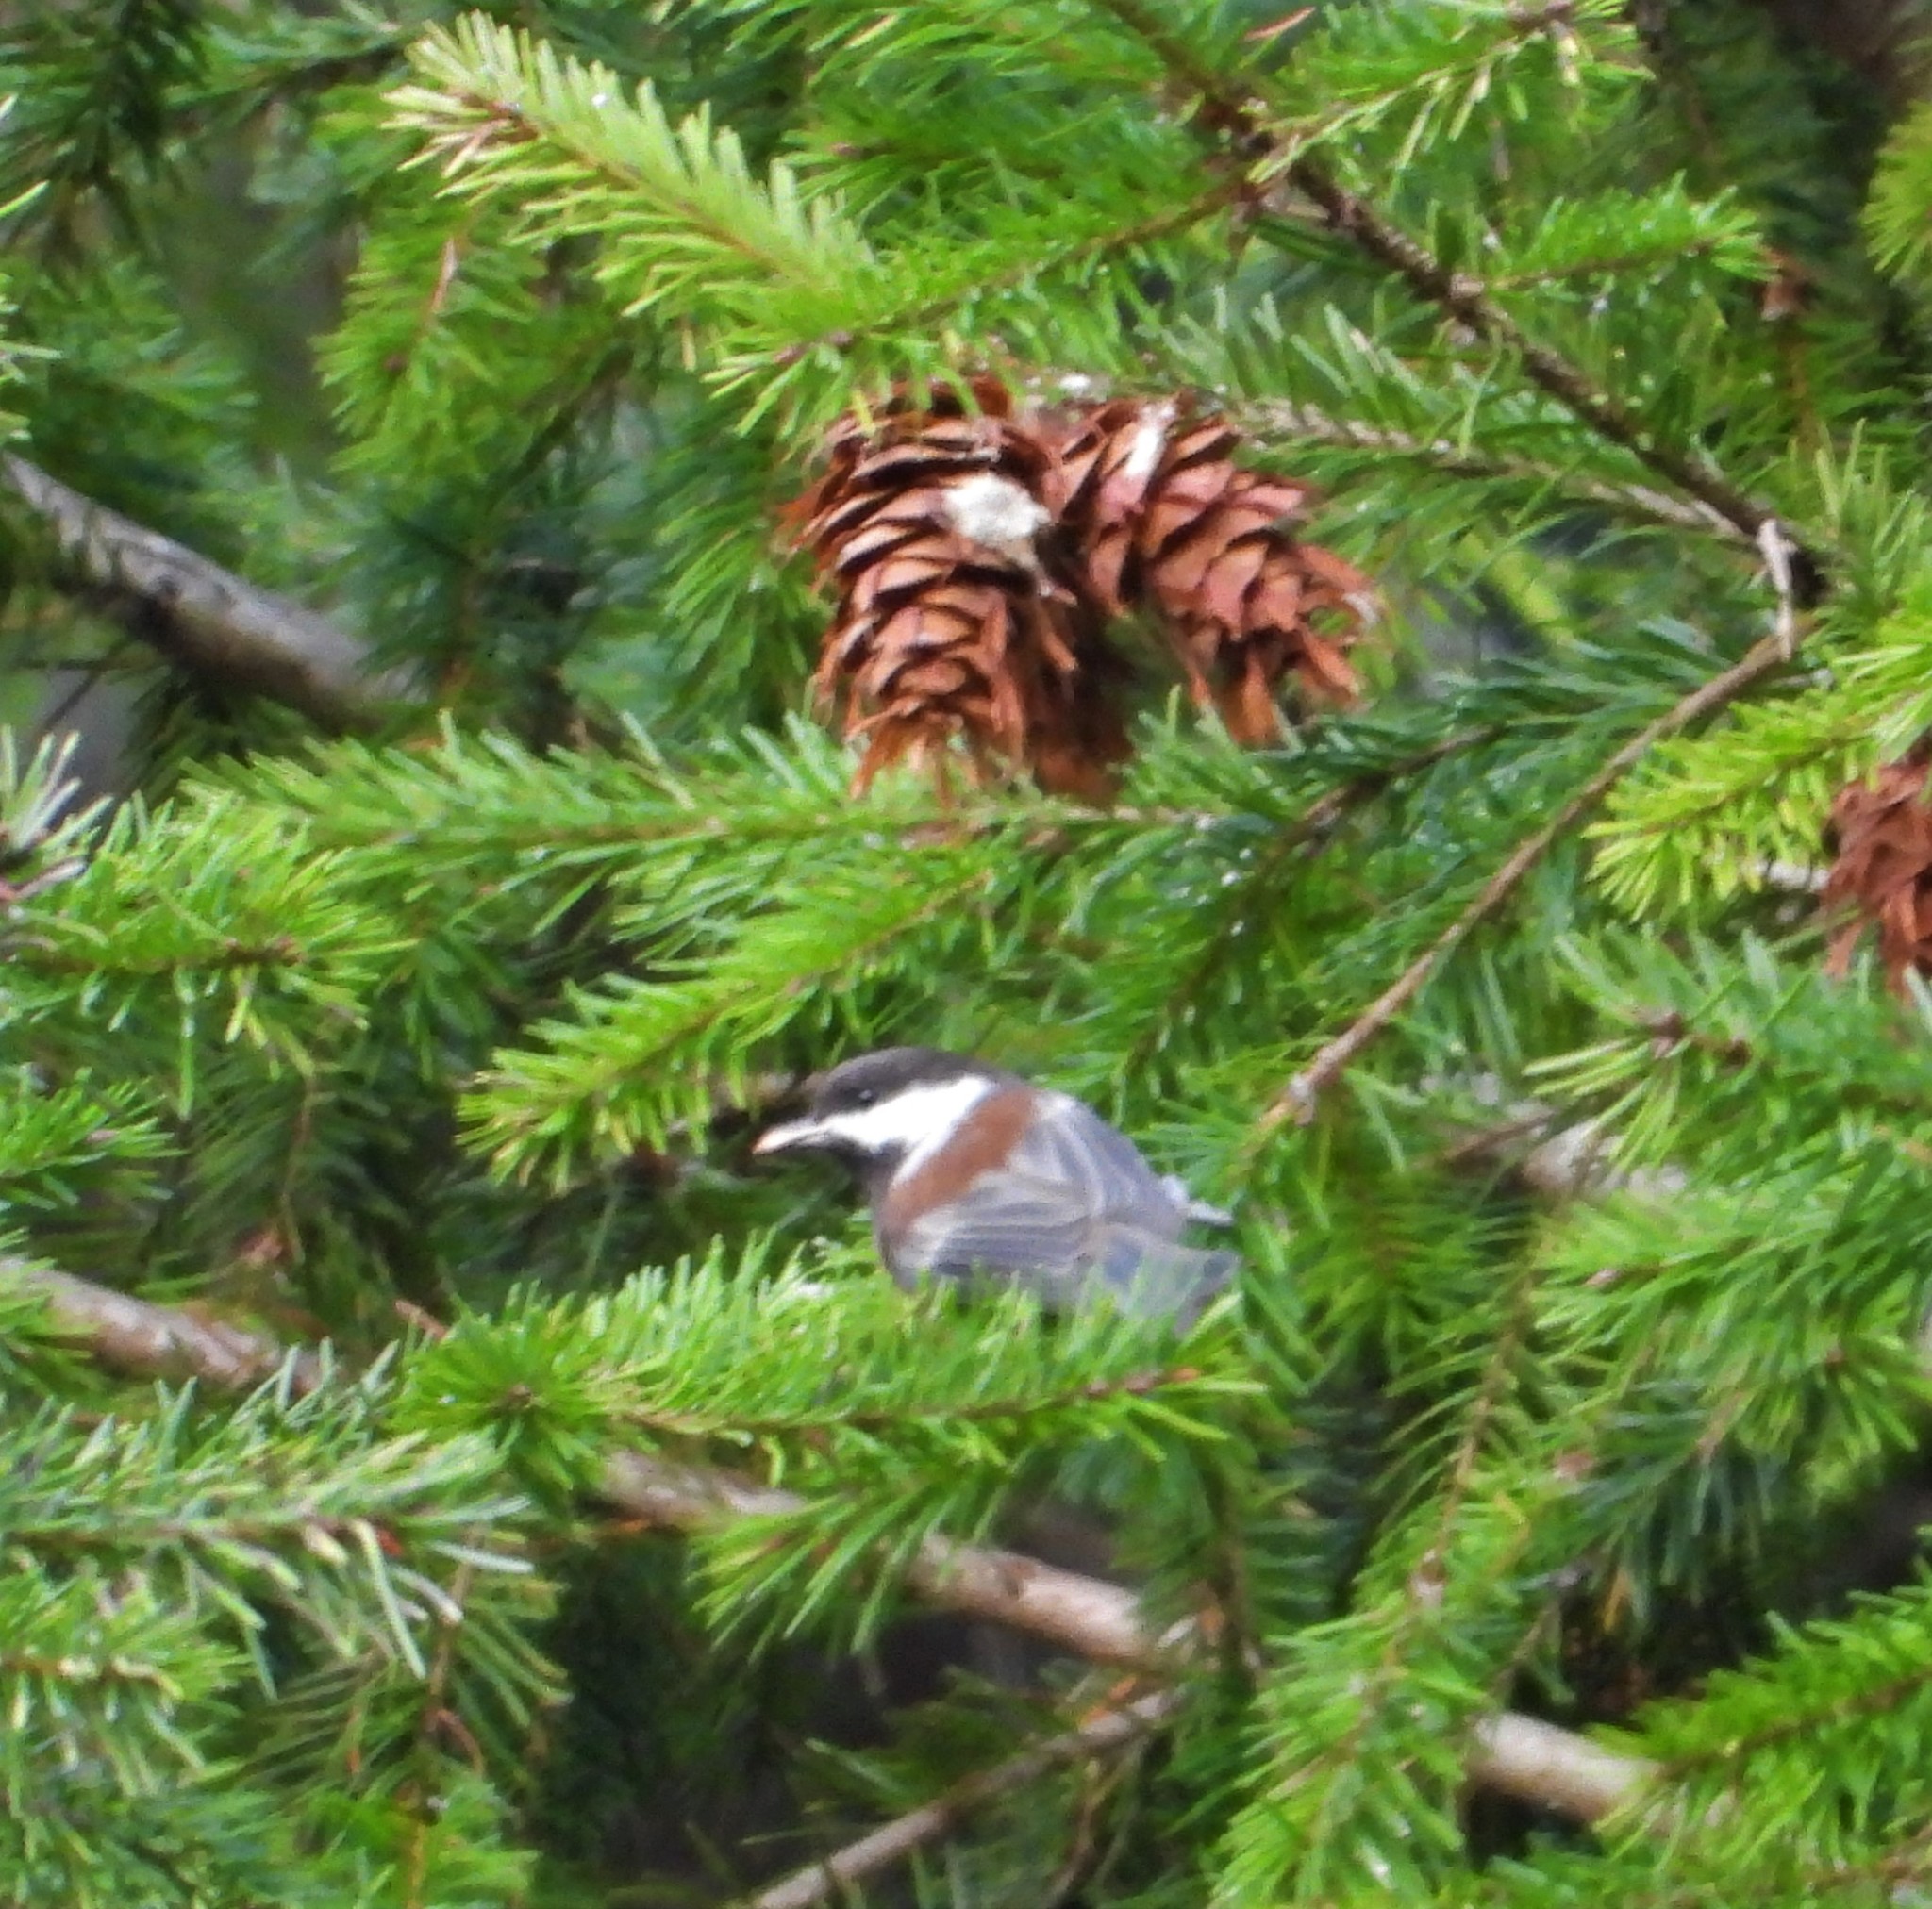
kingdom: Animalia
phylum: Chordata
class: Aves
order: Passeriformes
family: Paridae
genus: Poecile
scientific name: Poecile rufescens
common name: Chestnut-backed chickadee
